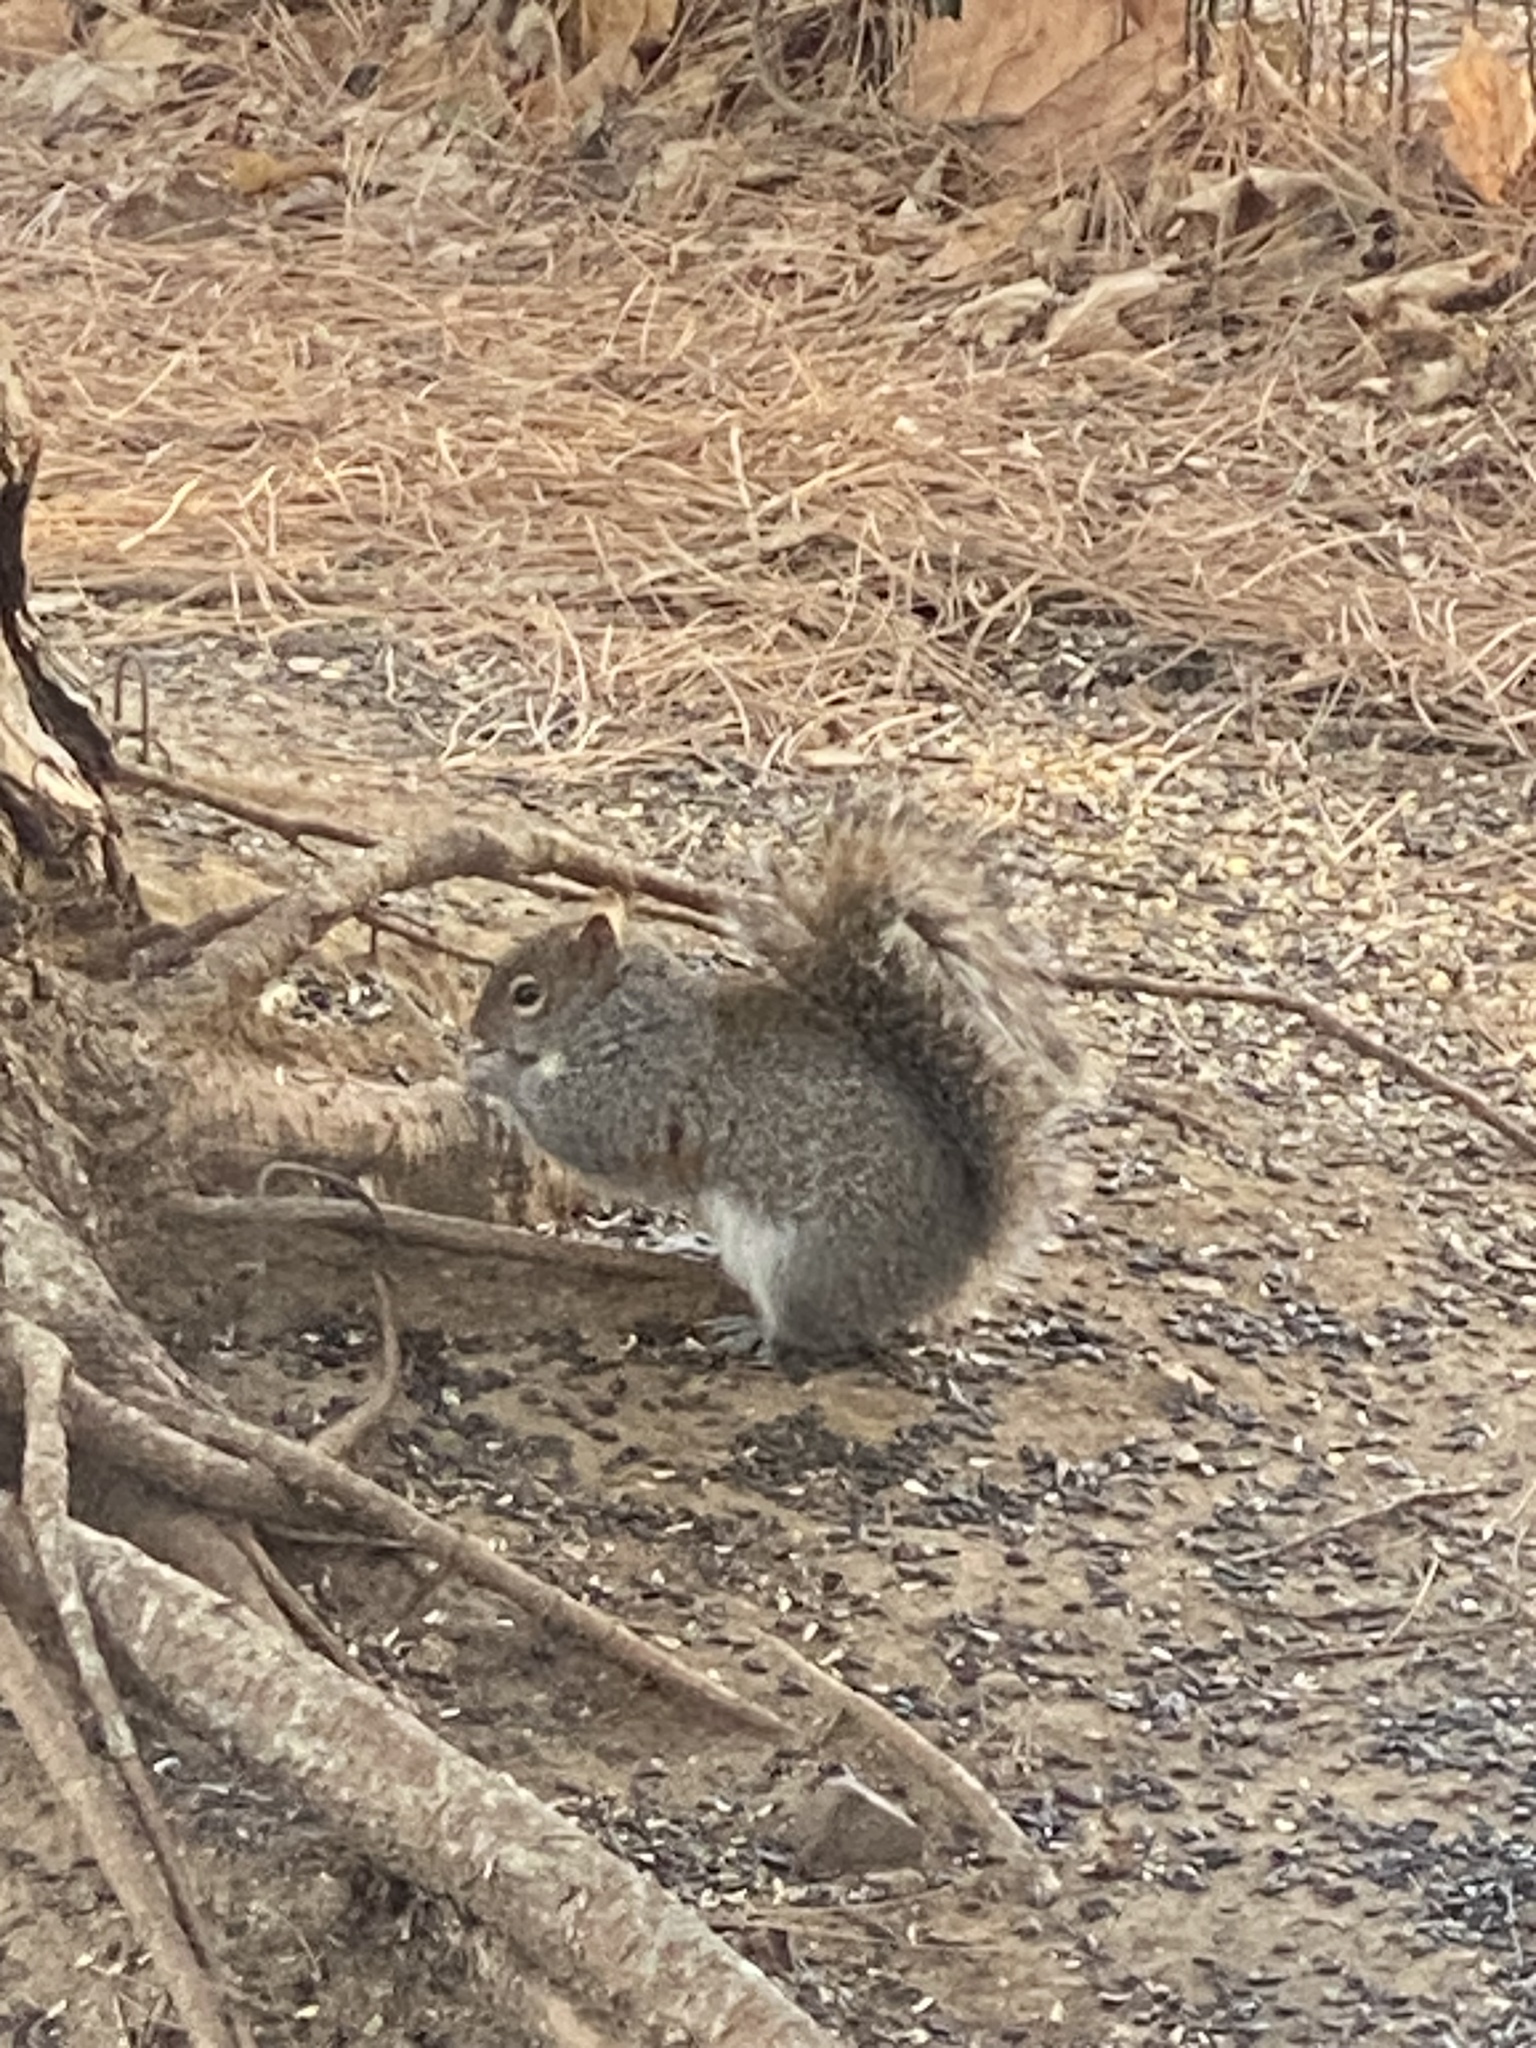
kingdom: Animalia
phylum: Chordata
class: Mammalia
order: Rodentia
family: Sciuridae
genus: Sciurus
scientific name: Sciurus carolinensis
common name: Eastern gray squirrel
